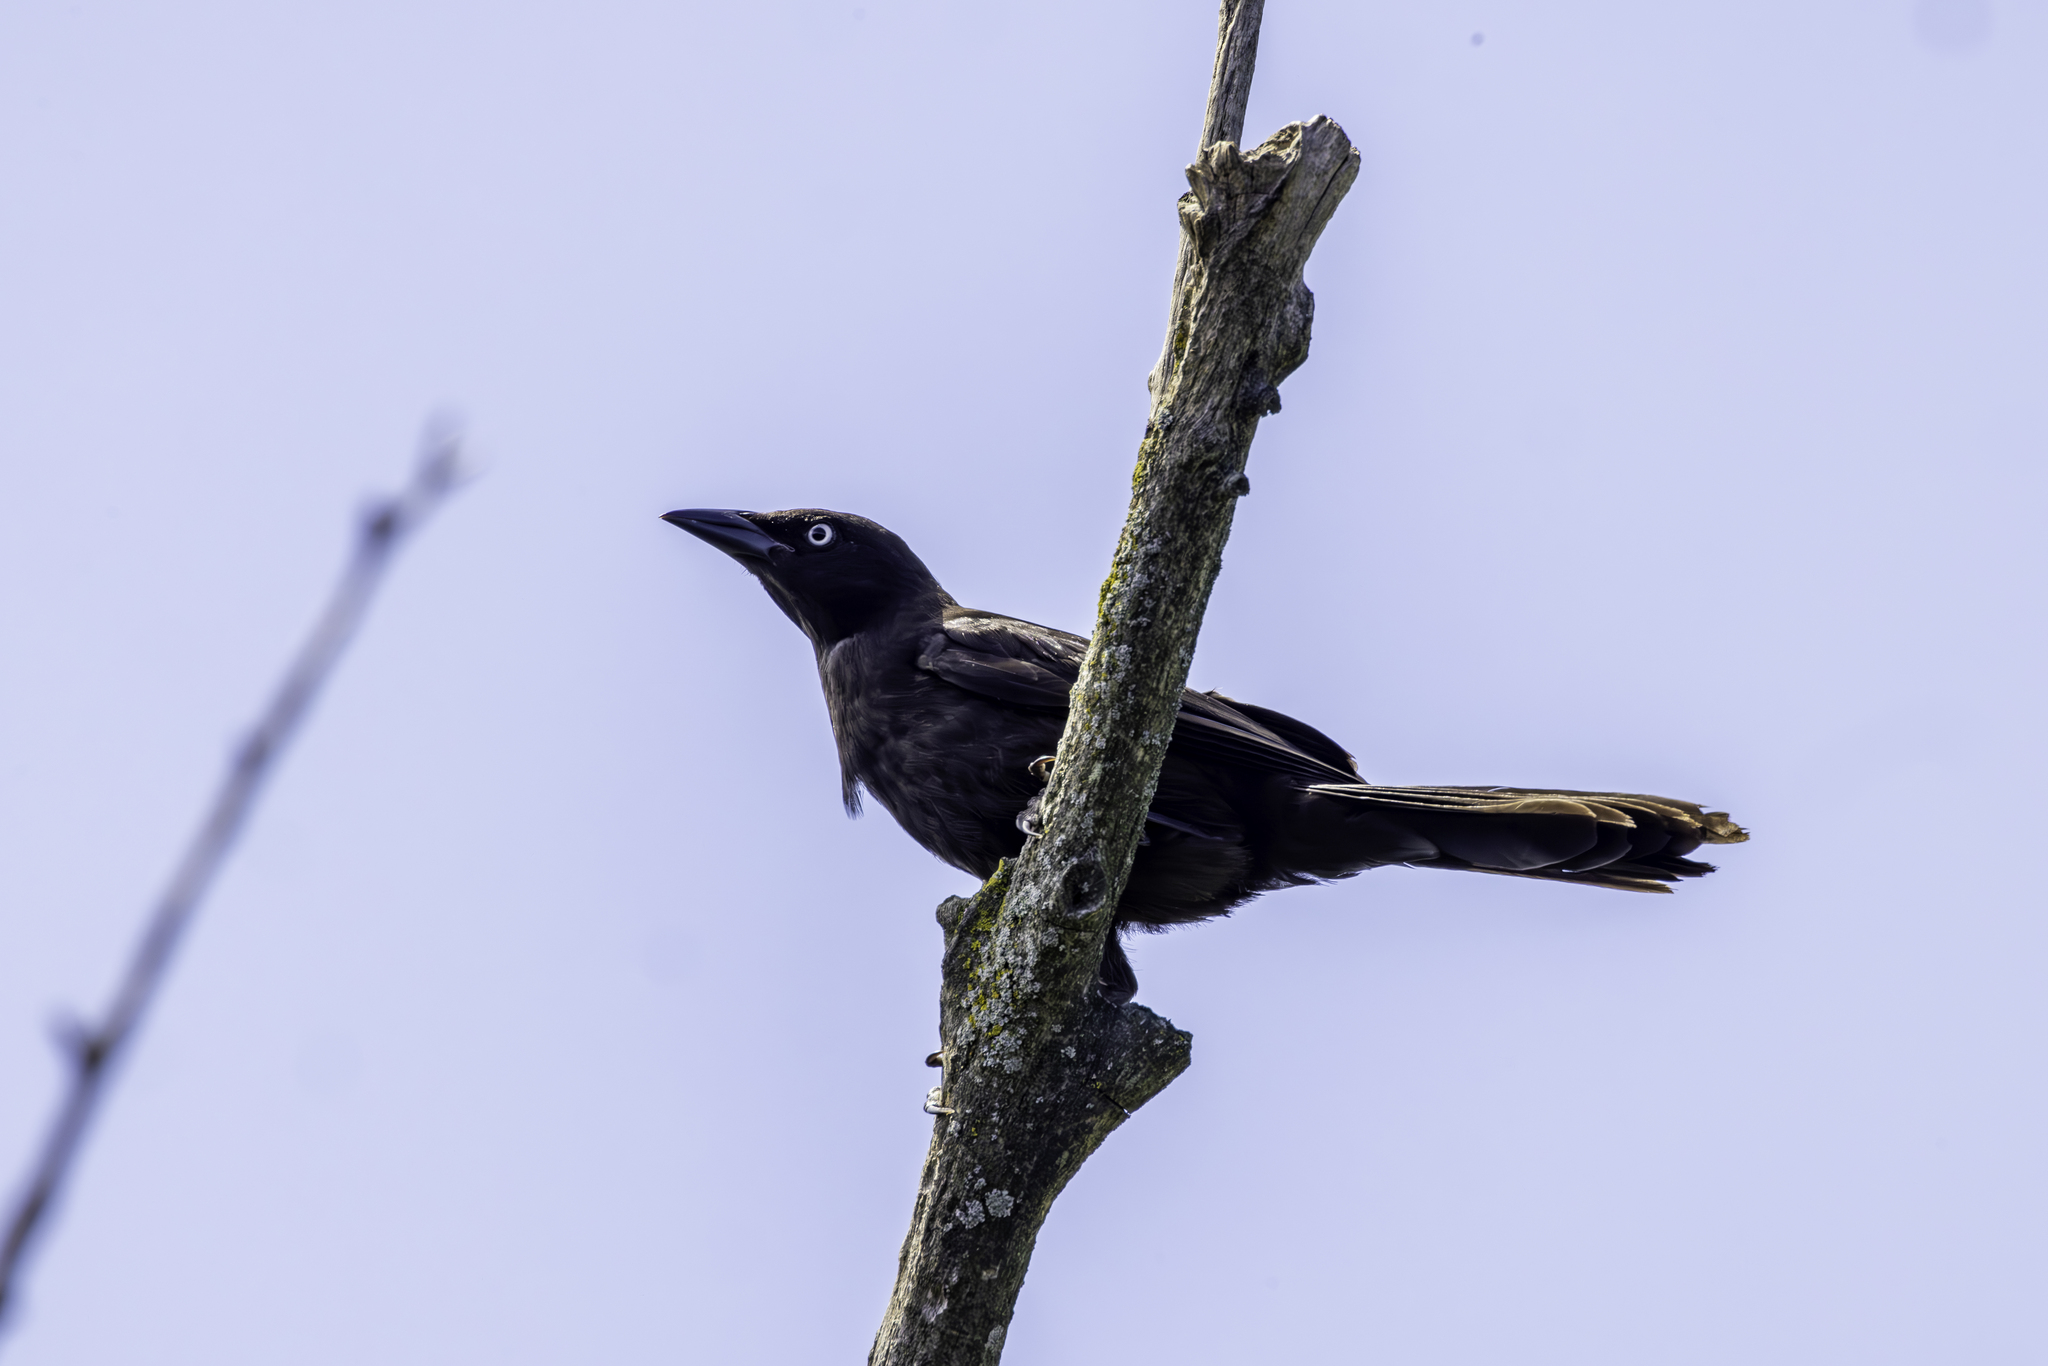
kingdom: Animalia
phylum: Chordata
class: Aves
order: Passeriformes
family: Icteridae
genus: Quiscalus
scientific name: Quiscalus quiscula
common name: Common grackle
